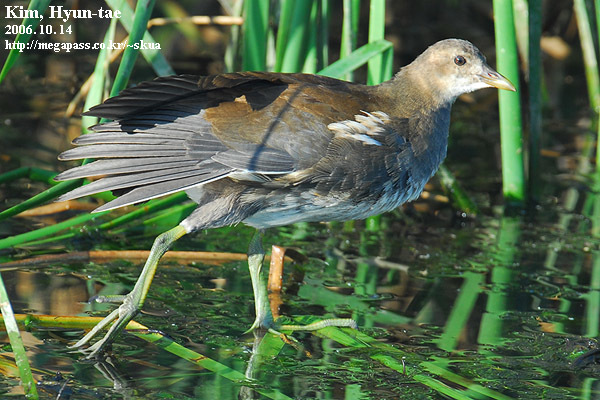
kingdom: Animalia
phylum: Chordata
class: Aves
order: Gruiformes
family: Rallidae
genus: Gallinula
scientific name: Gallinula chloropus
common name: Common moorhen
